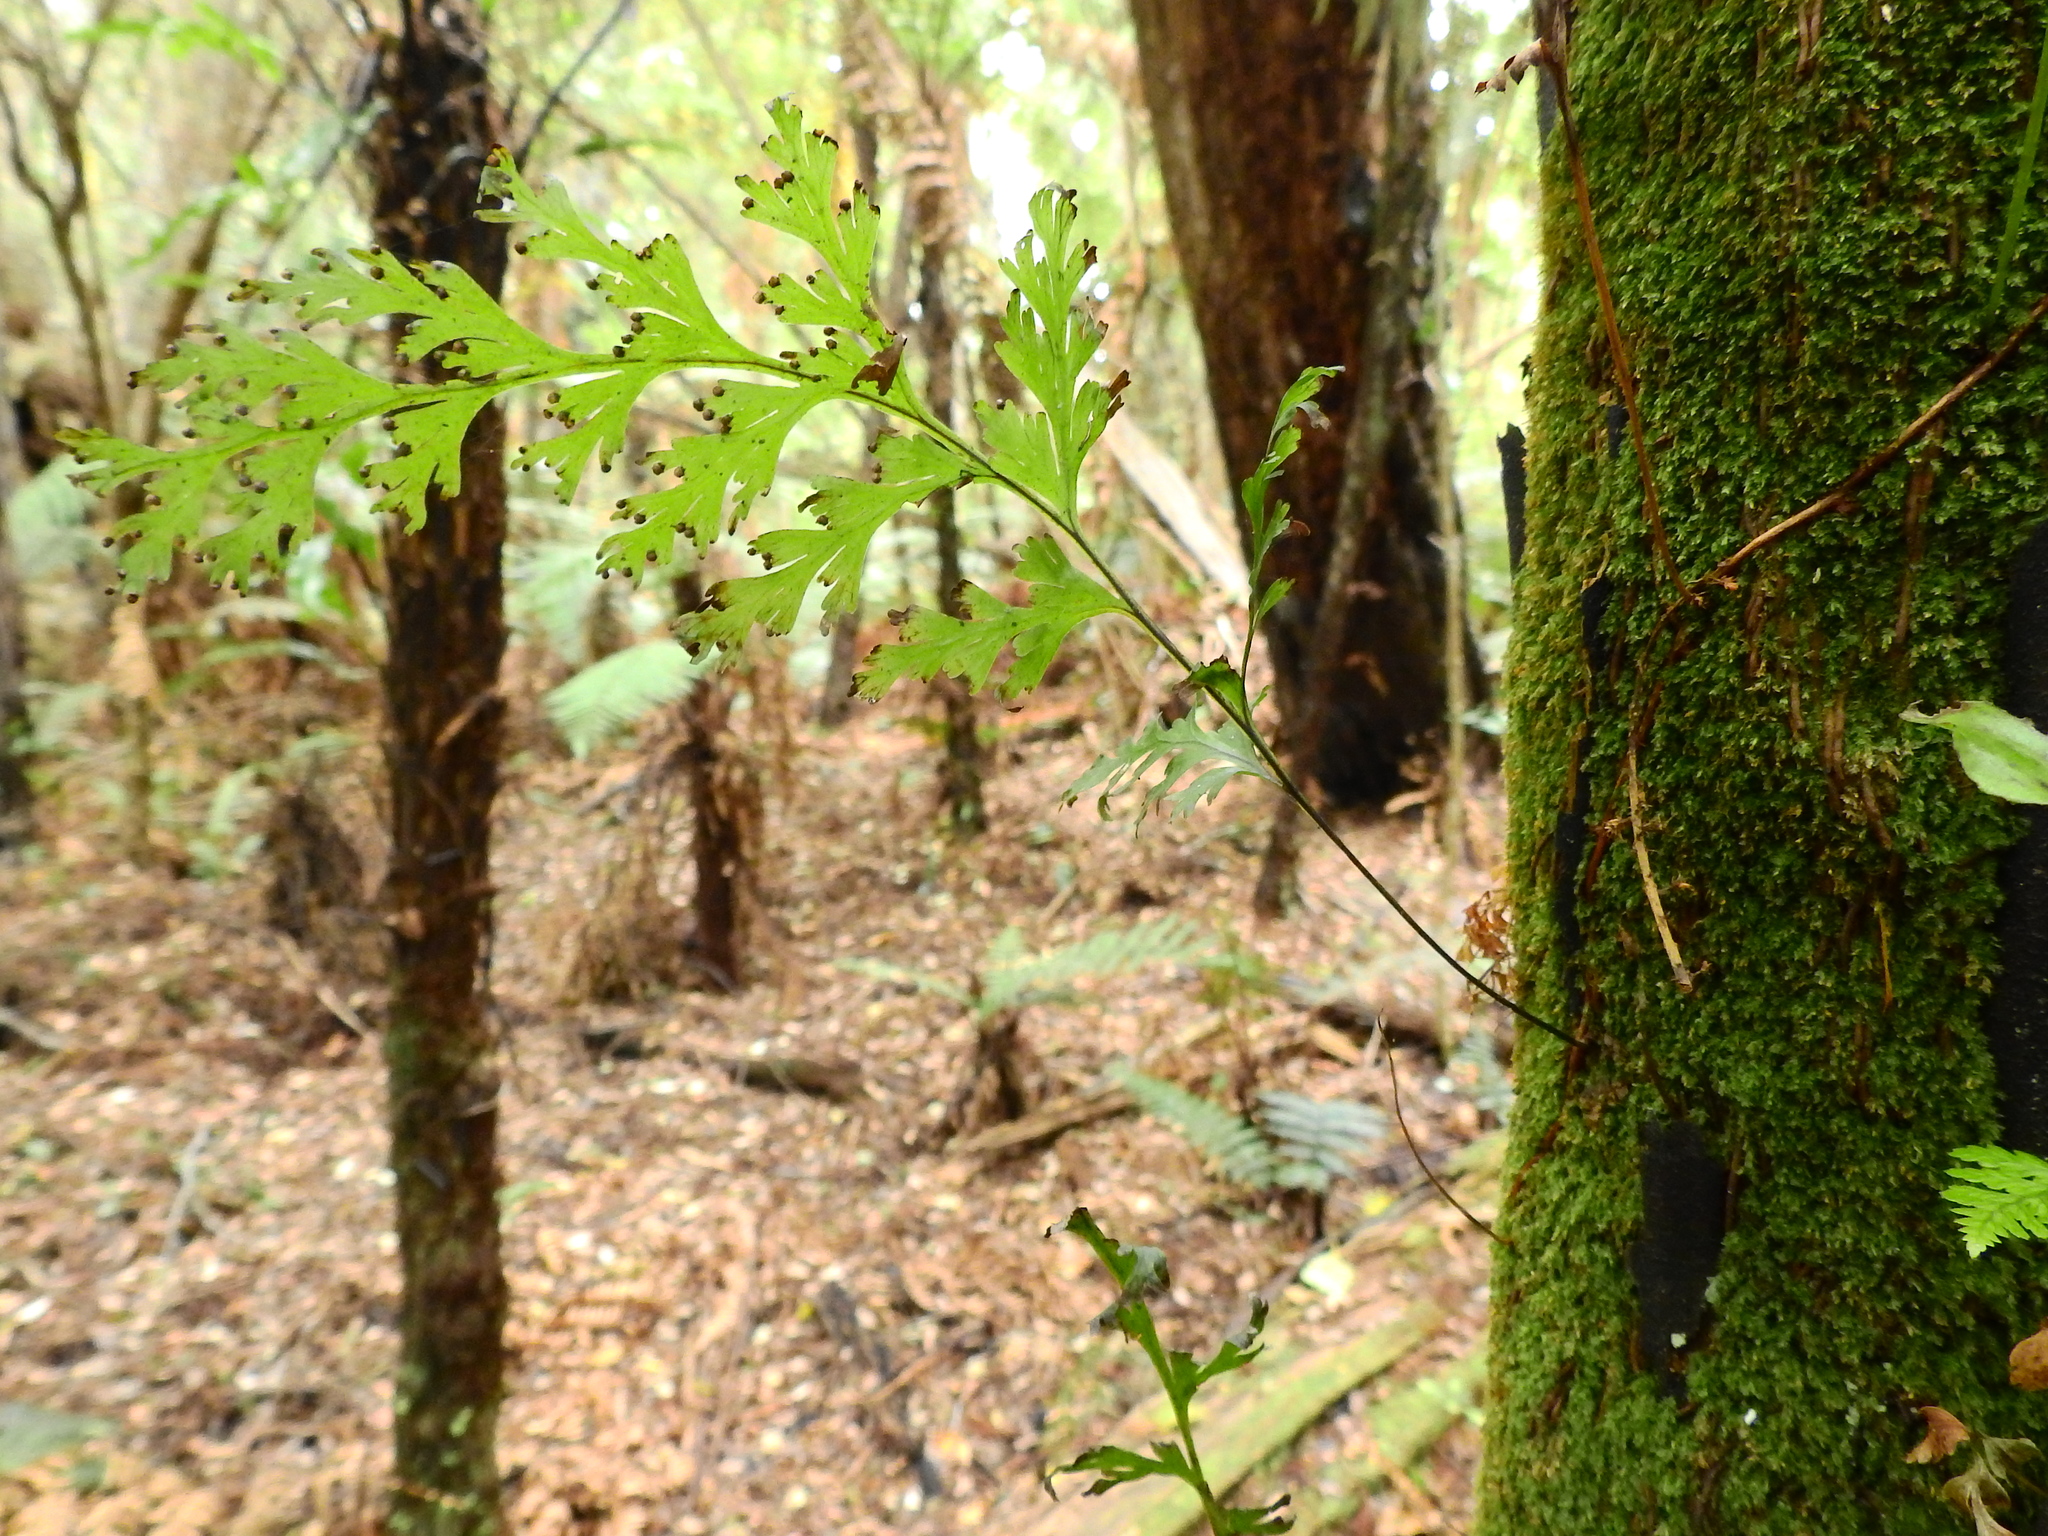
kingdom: Plantae
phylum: Tracheophyta
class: Polypodiopsida
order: Hymenophyllales
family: Hymenophyllaceae
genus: Hymenophyllum
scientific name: Hymenophyllum dilatatum
